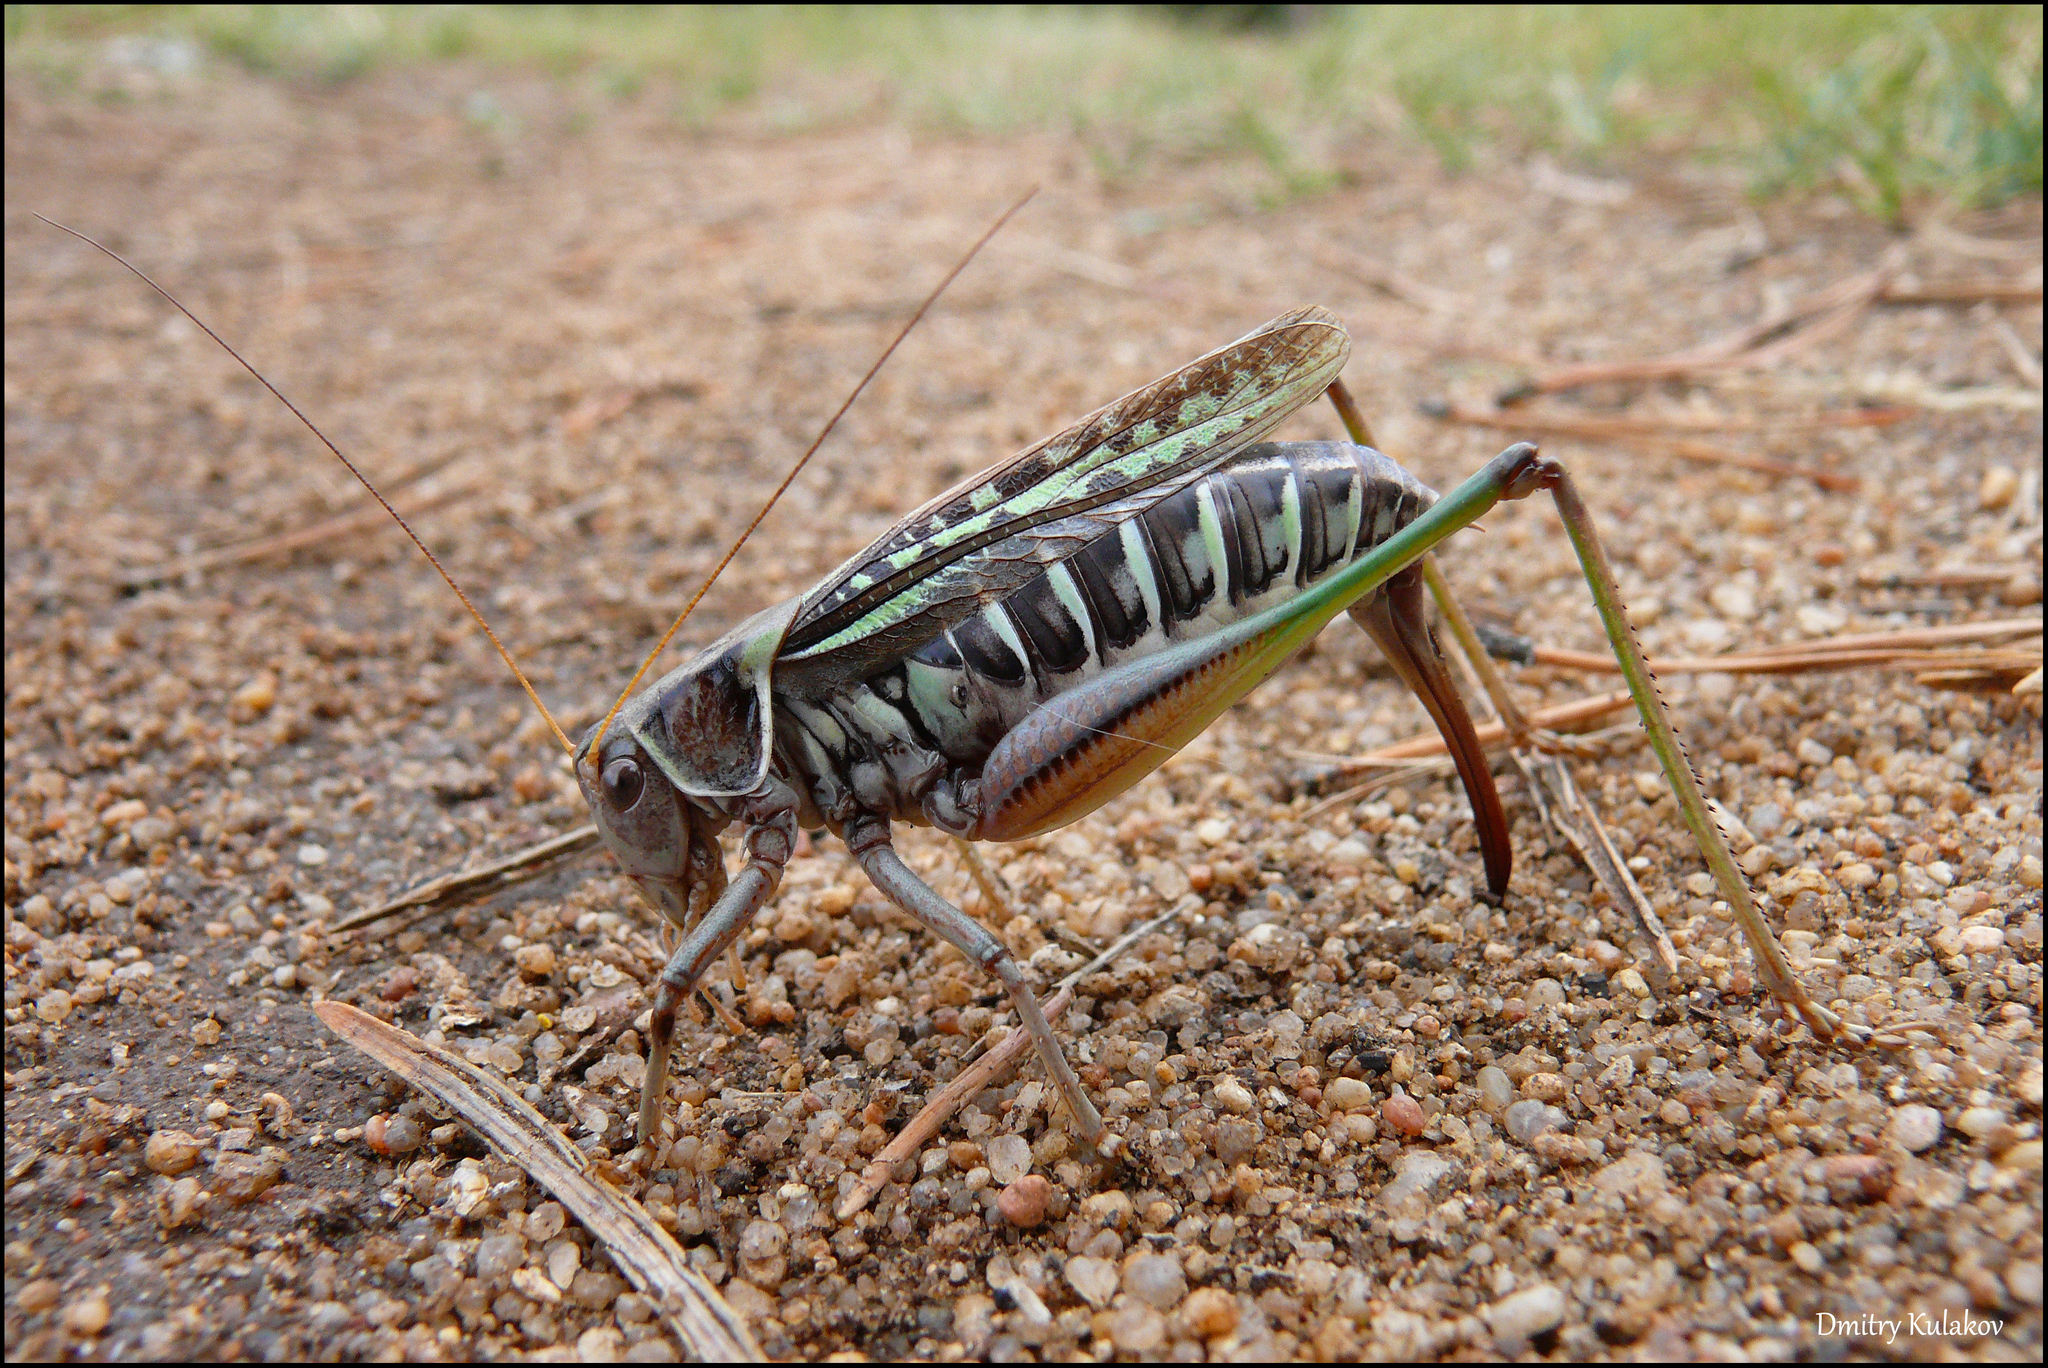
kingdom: Animalia
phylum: Arthropoda
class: Insecta
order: Orthoptera
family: Tettigoniidae
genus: Gampsocleis
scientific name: Gampsocleis sedakovii
